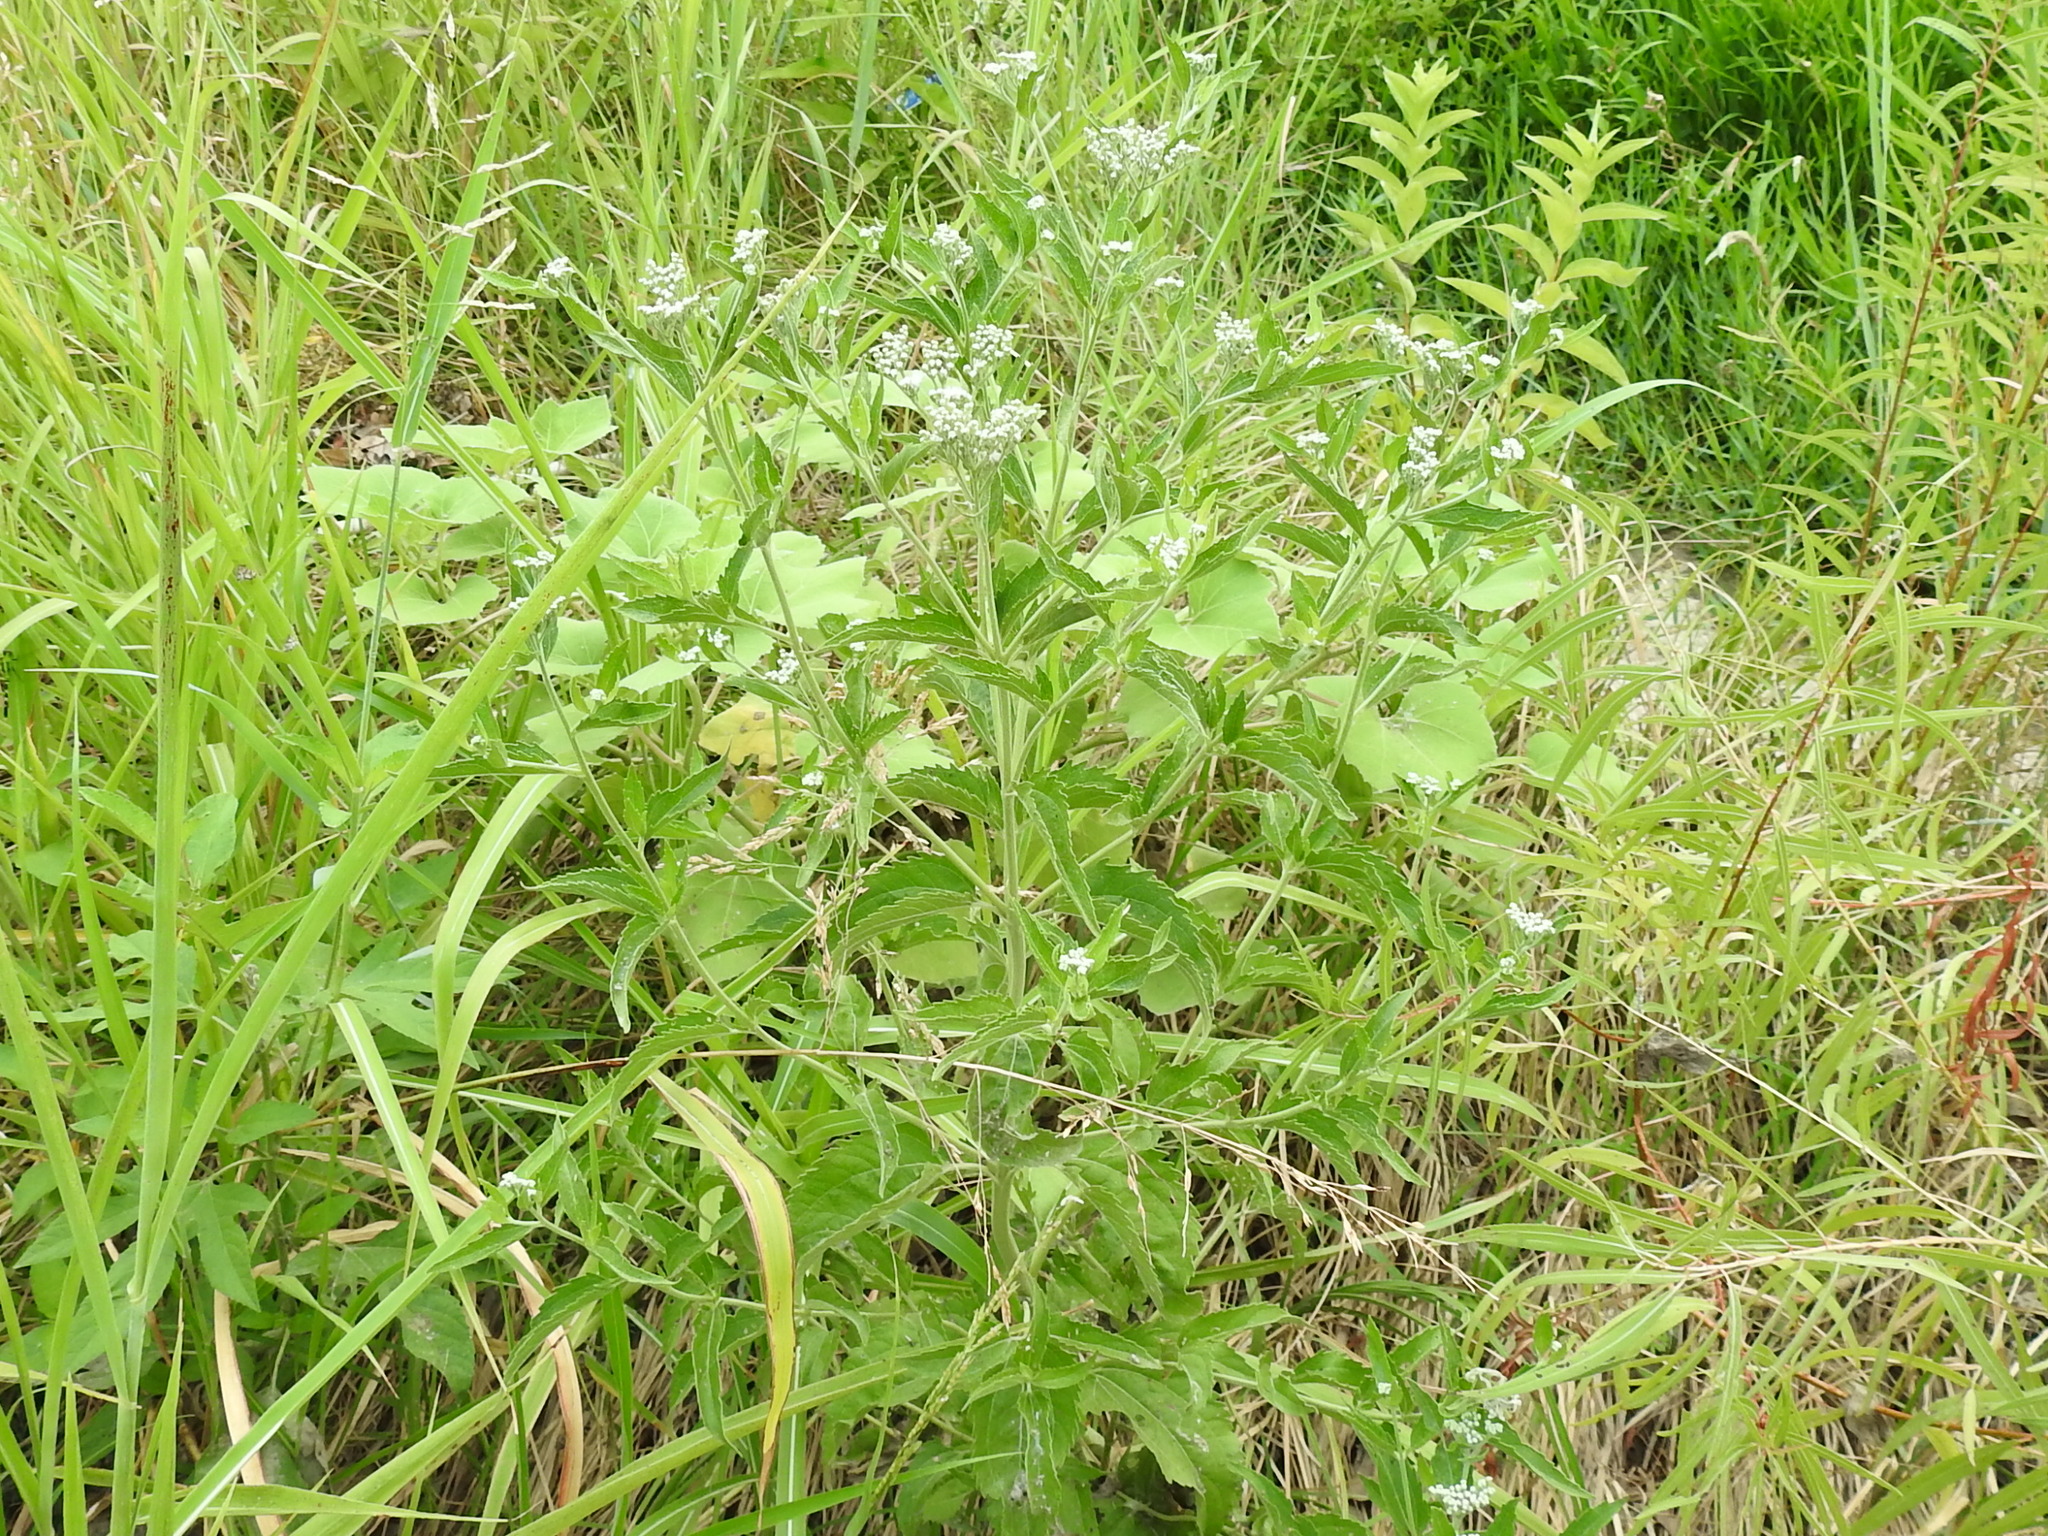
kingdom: Plantae
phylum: Tracheophyta
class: Magnoliopsida
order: Asterales
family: Asteraceae
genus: Eupatorium
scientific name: Eupatorium serotinum
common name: Late boneset
